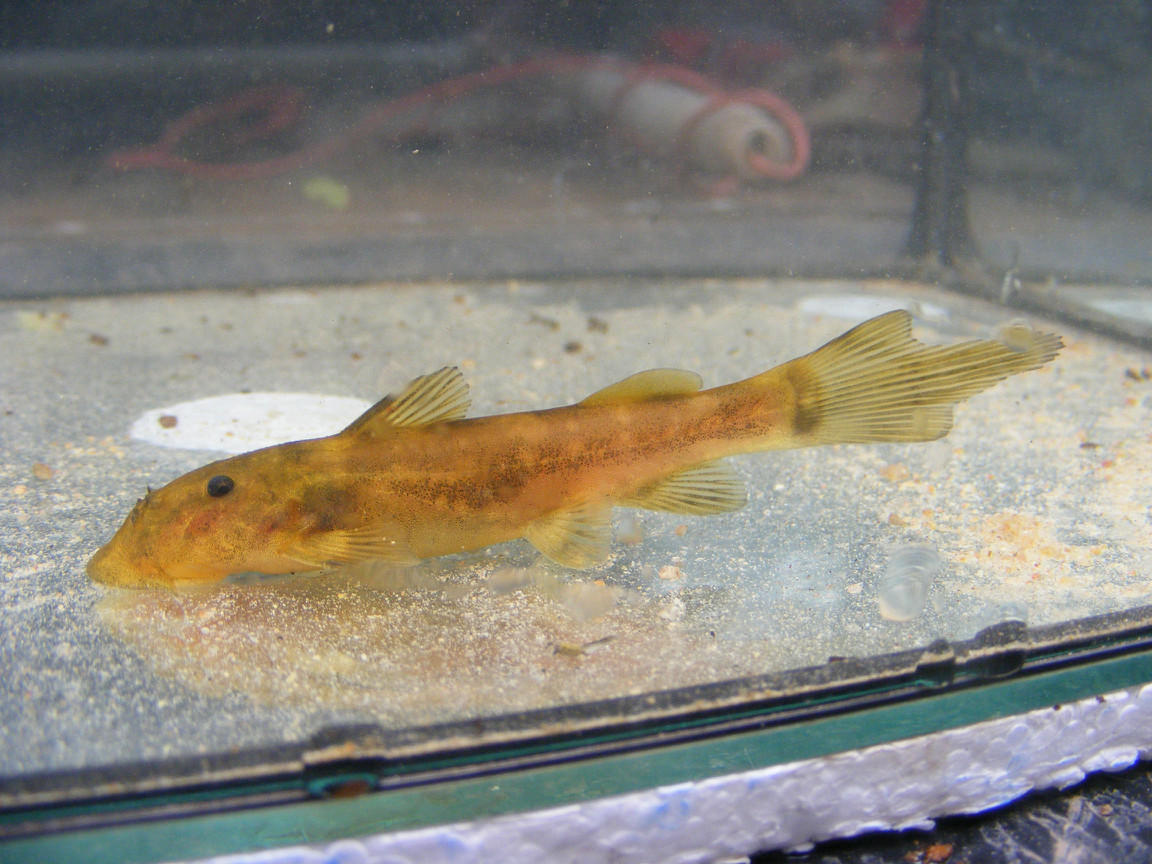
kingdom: Animalia
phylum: Chordata
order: Siluriformes
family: Mochokidae
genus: Chiloglanis
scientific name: Chiloglanis anoterus
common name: Pennant-tailed catlet
